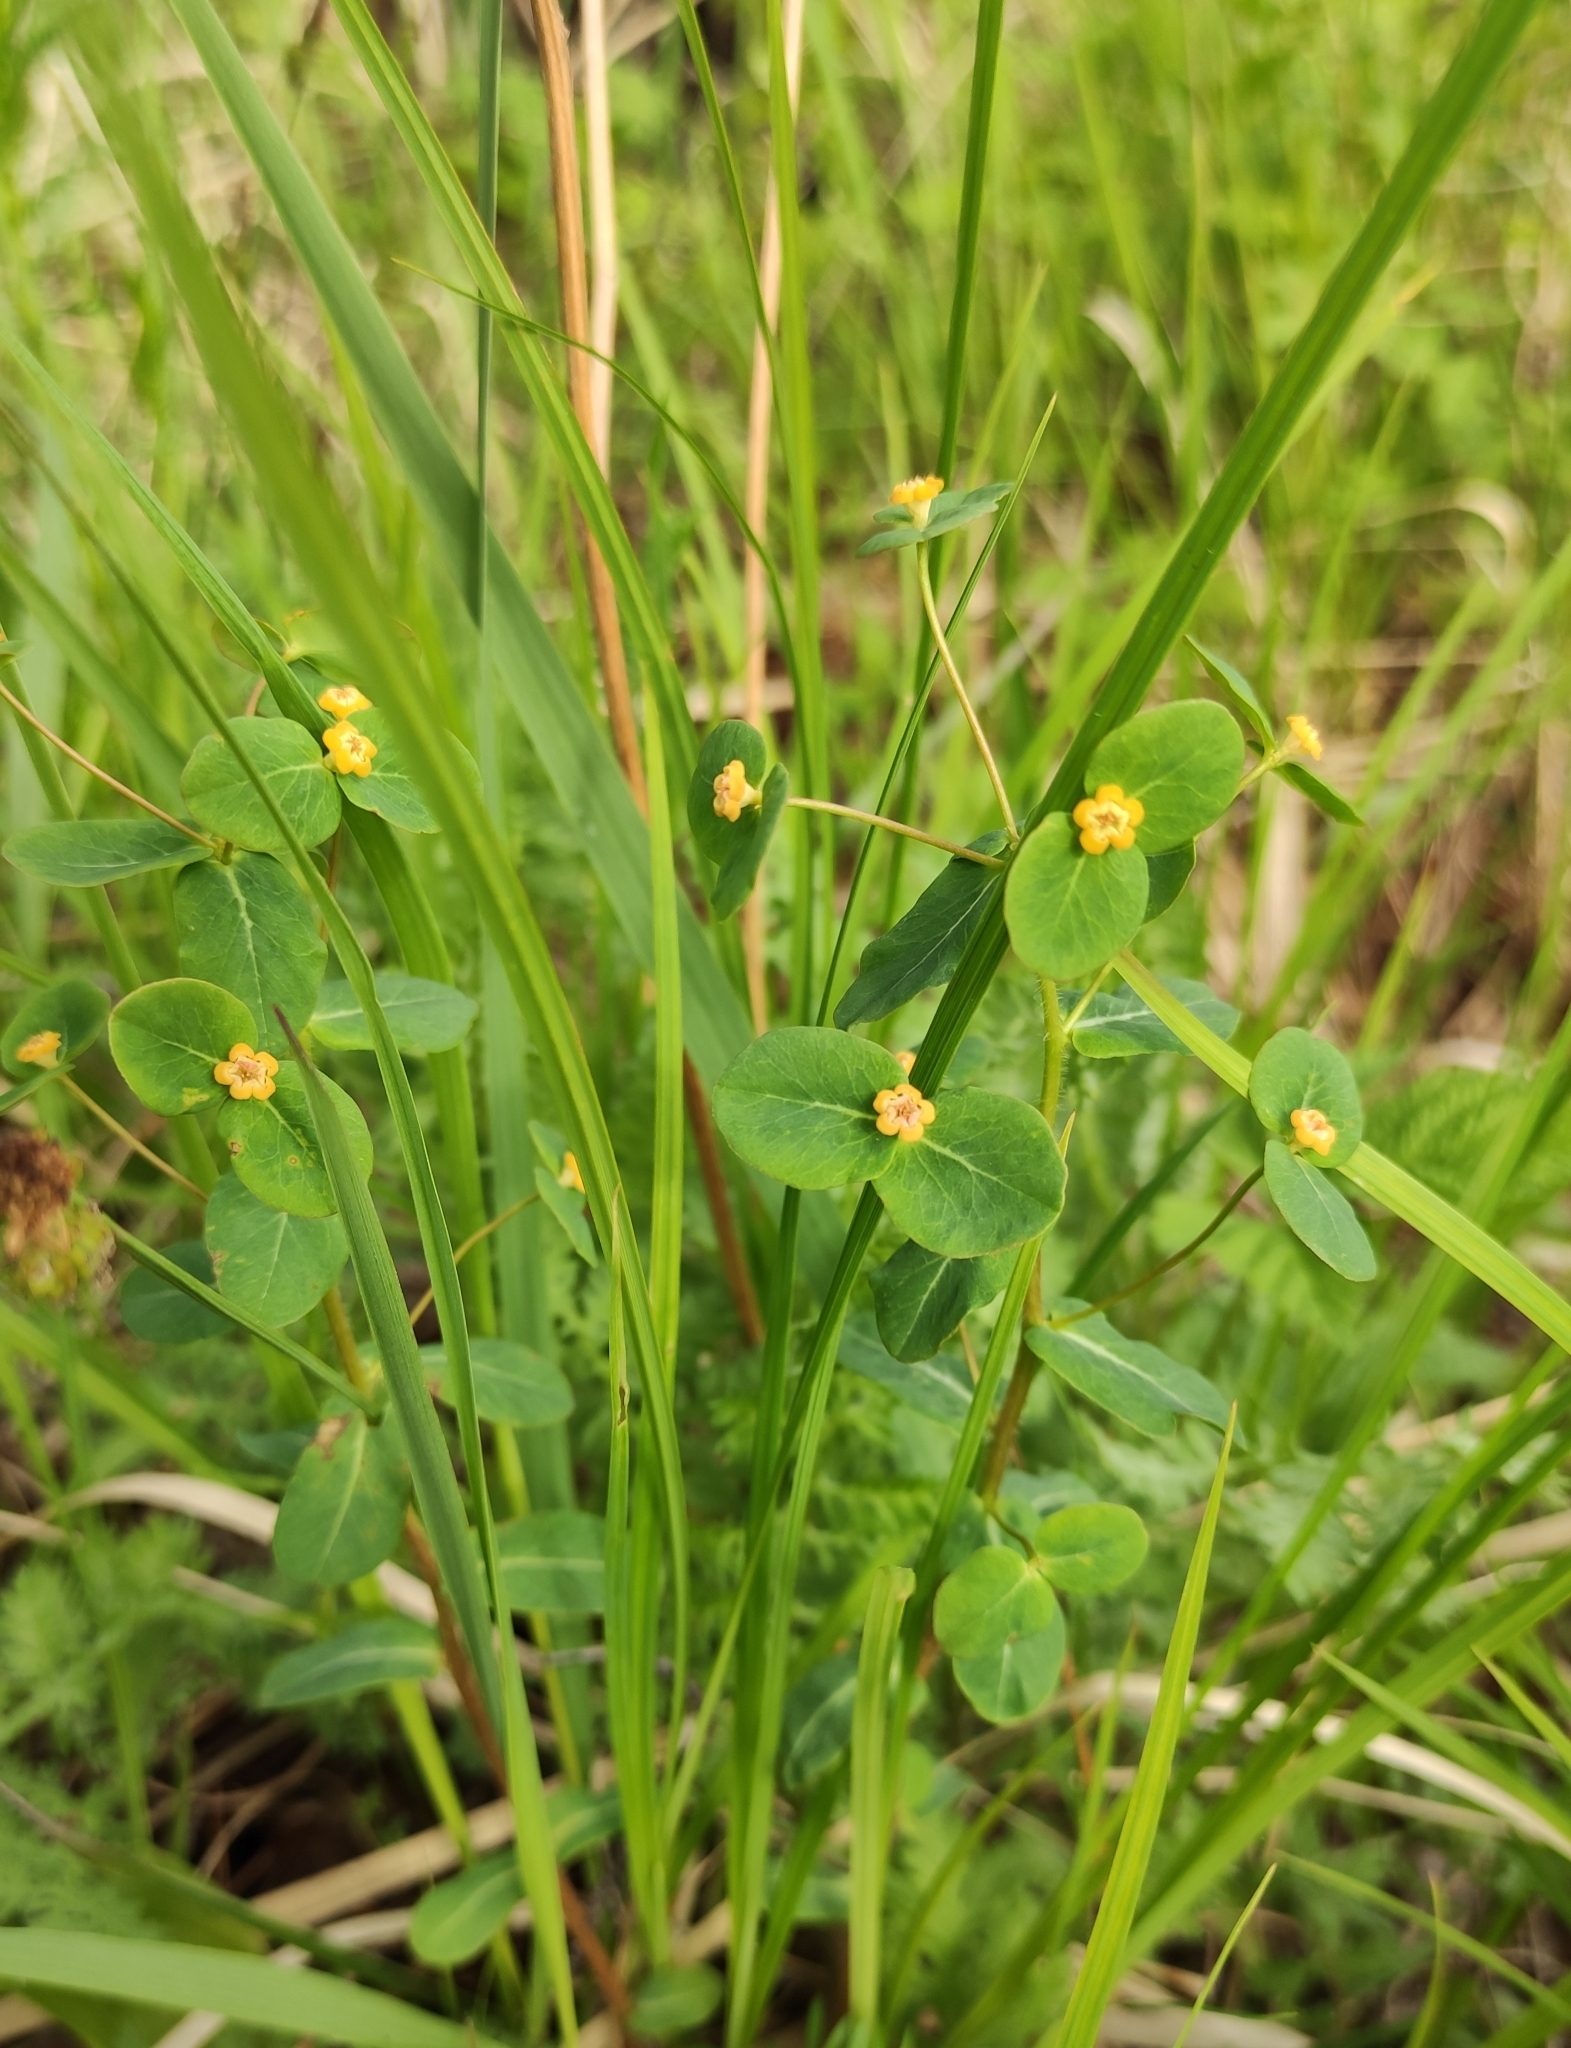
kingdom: Plantae
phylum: Tracheophyta
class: Magnoliopsida
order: Malpighiales
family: Euphorbiaceae
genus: Euphorbia
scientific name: Euphorbia jenisseiensis
